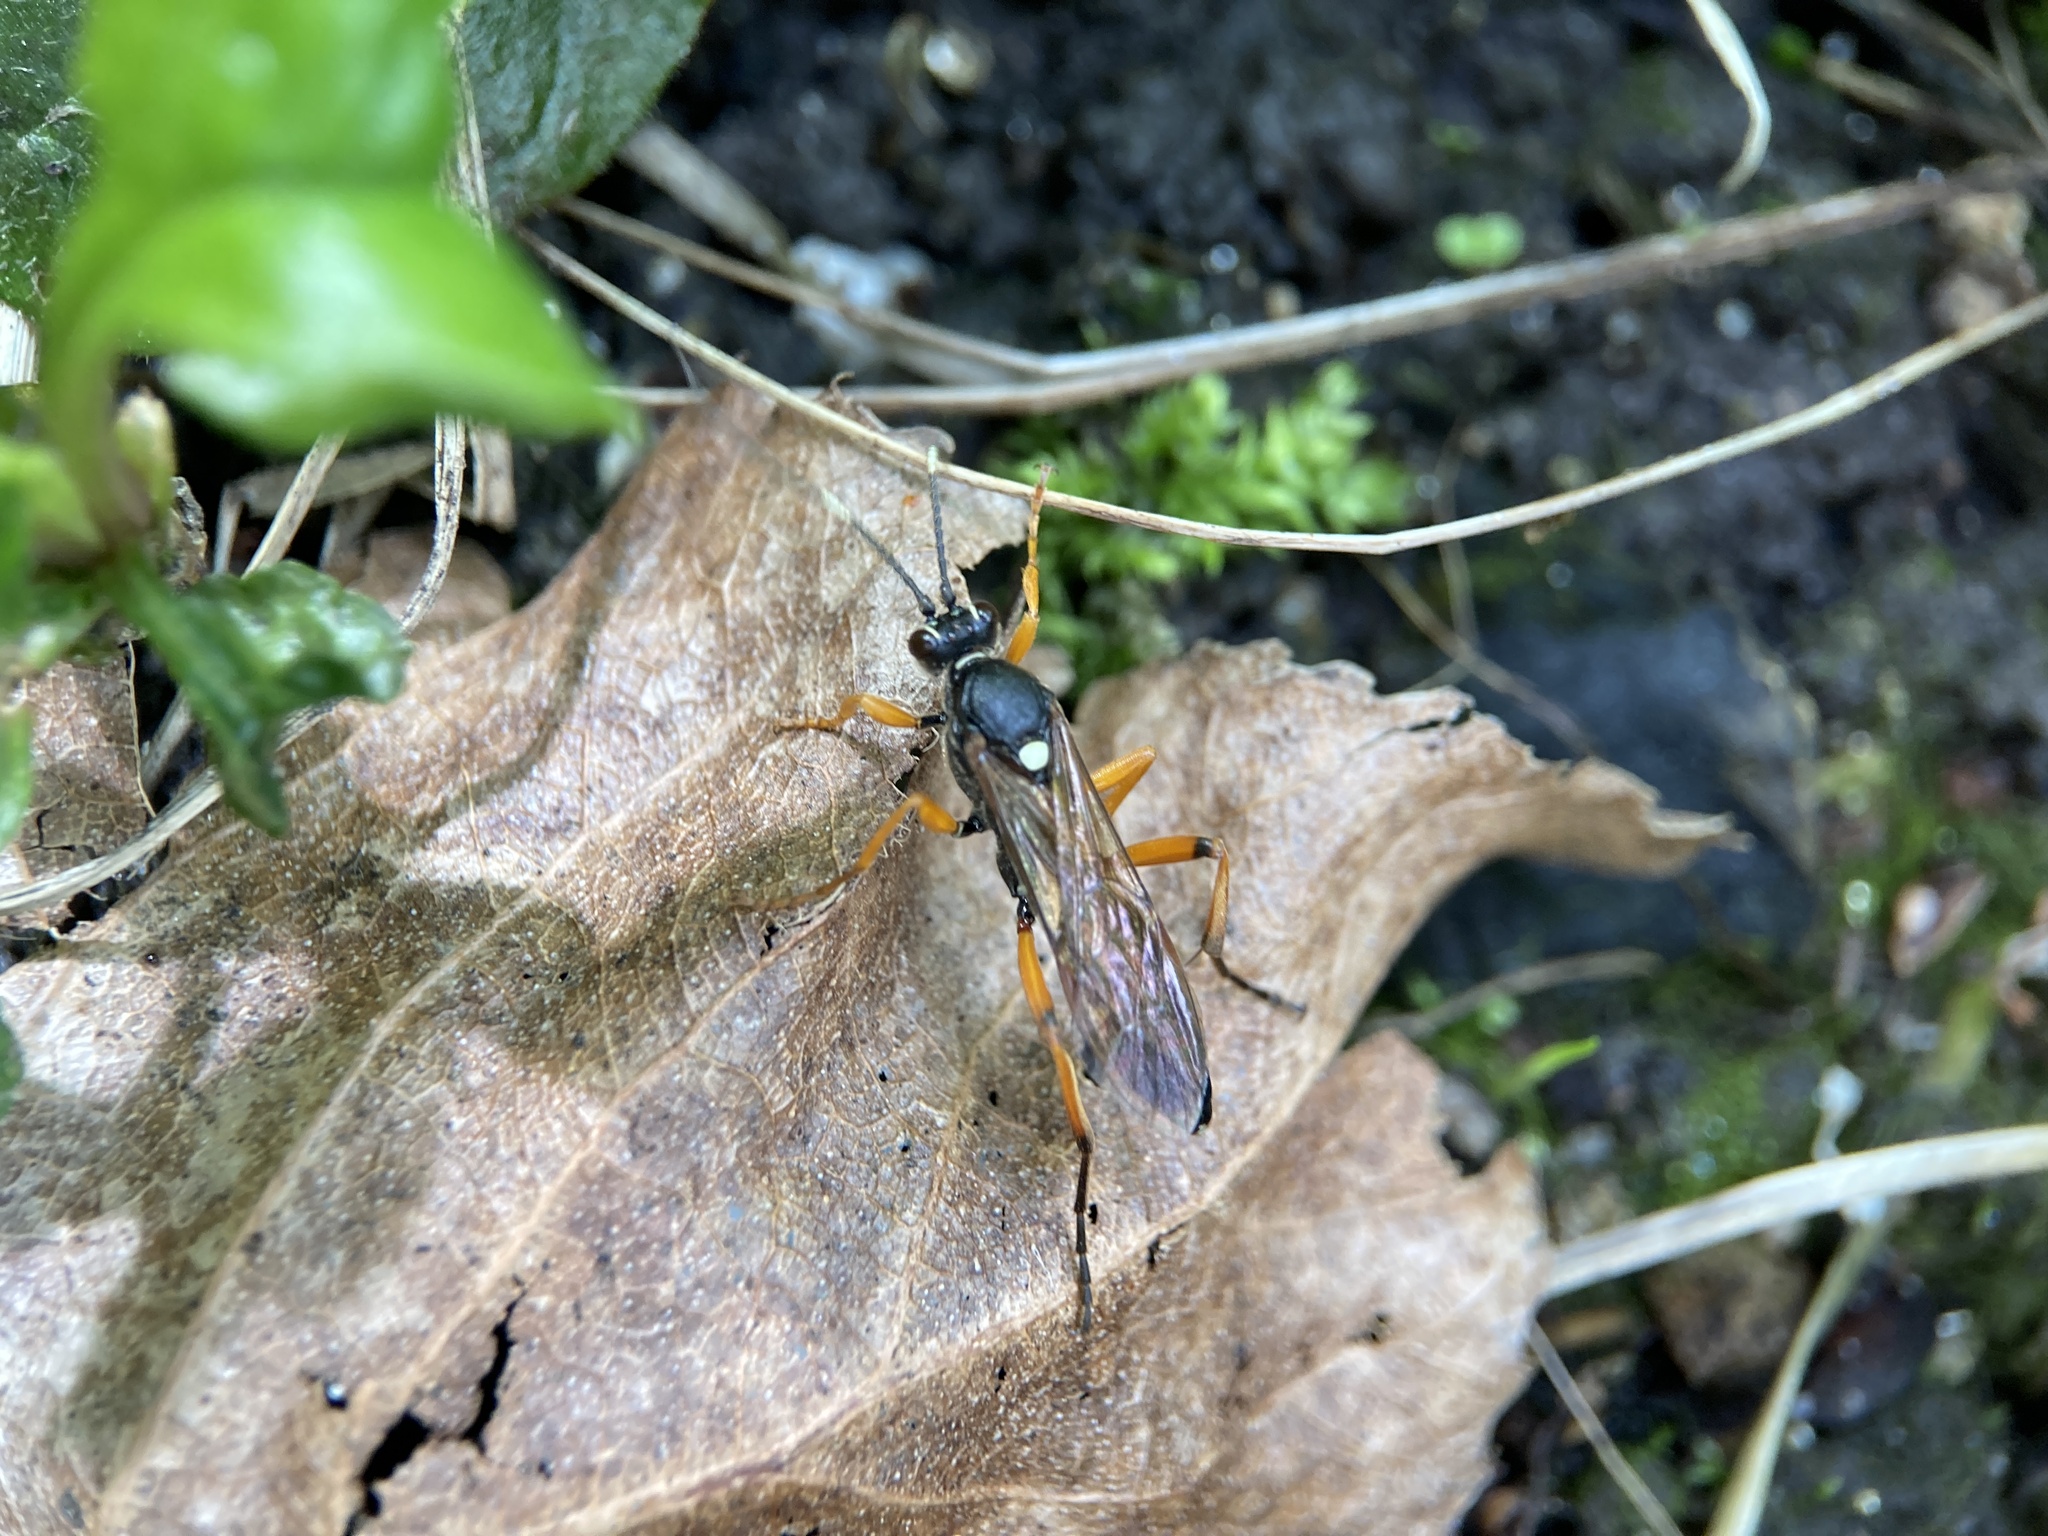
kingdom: Animalia
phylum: Arthropoda
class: Insecta
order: Hymenoptera
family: Ichneumonidae
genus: Diphyus
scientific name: Diphyus quadripunctorius
